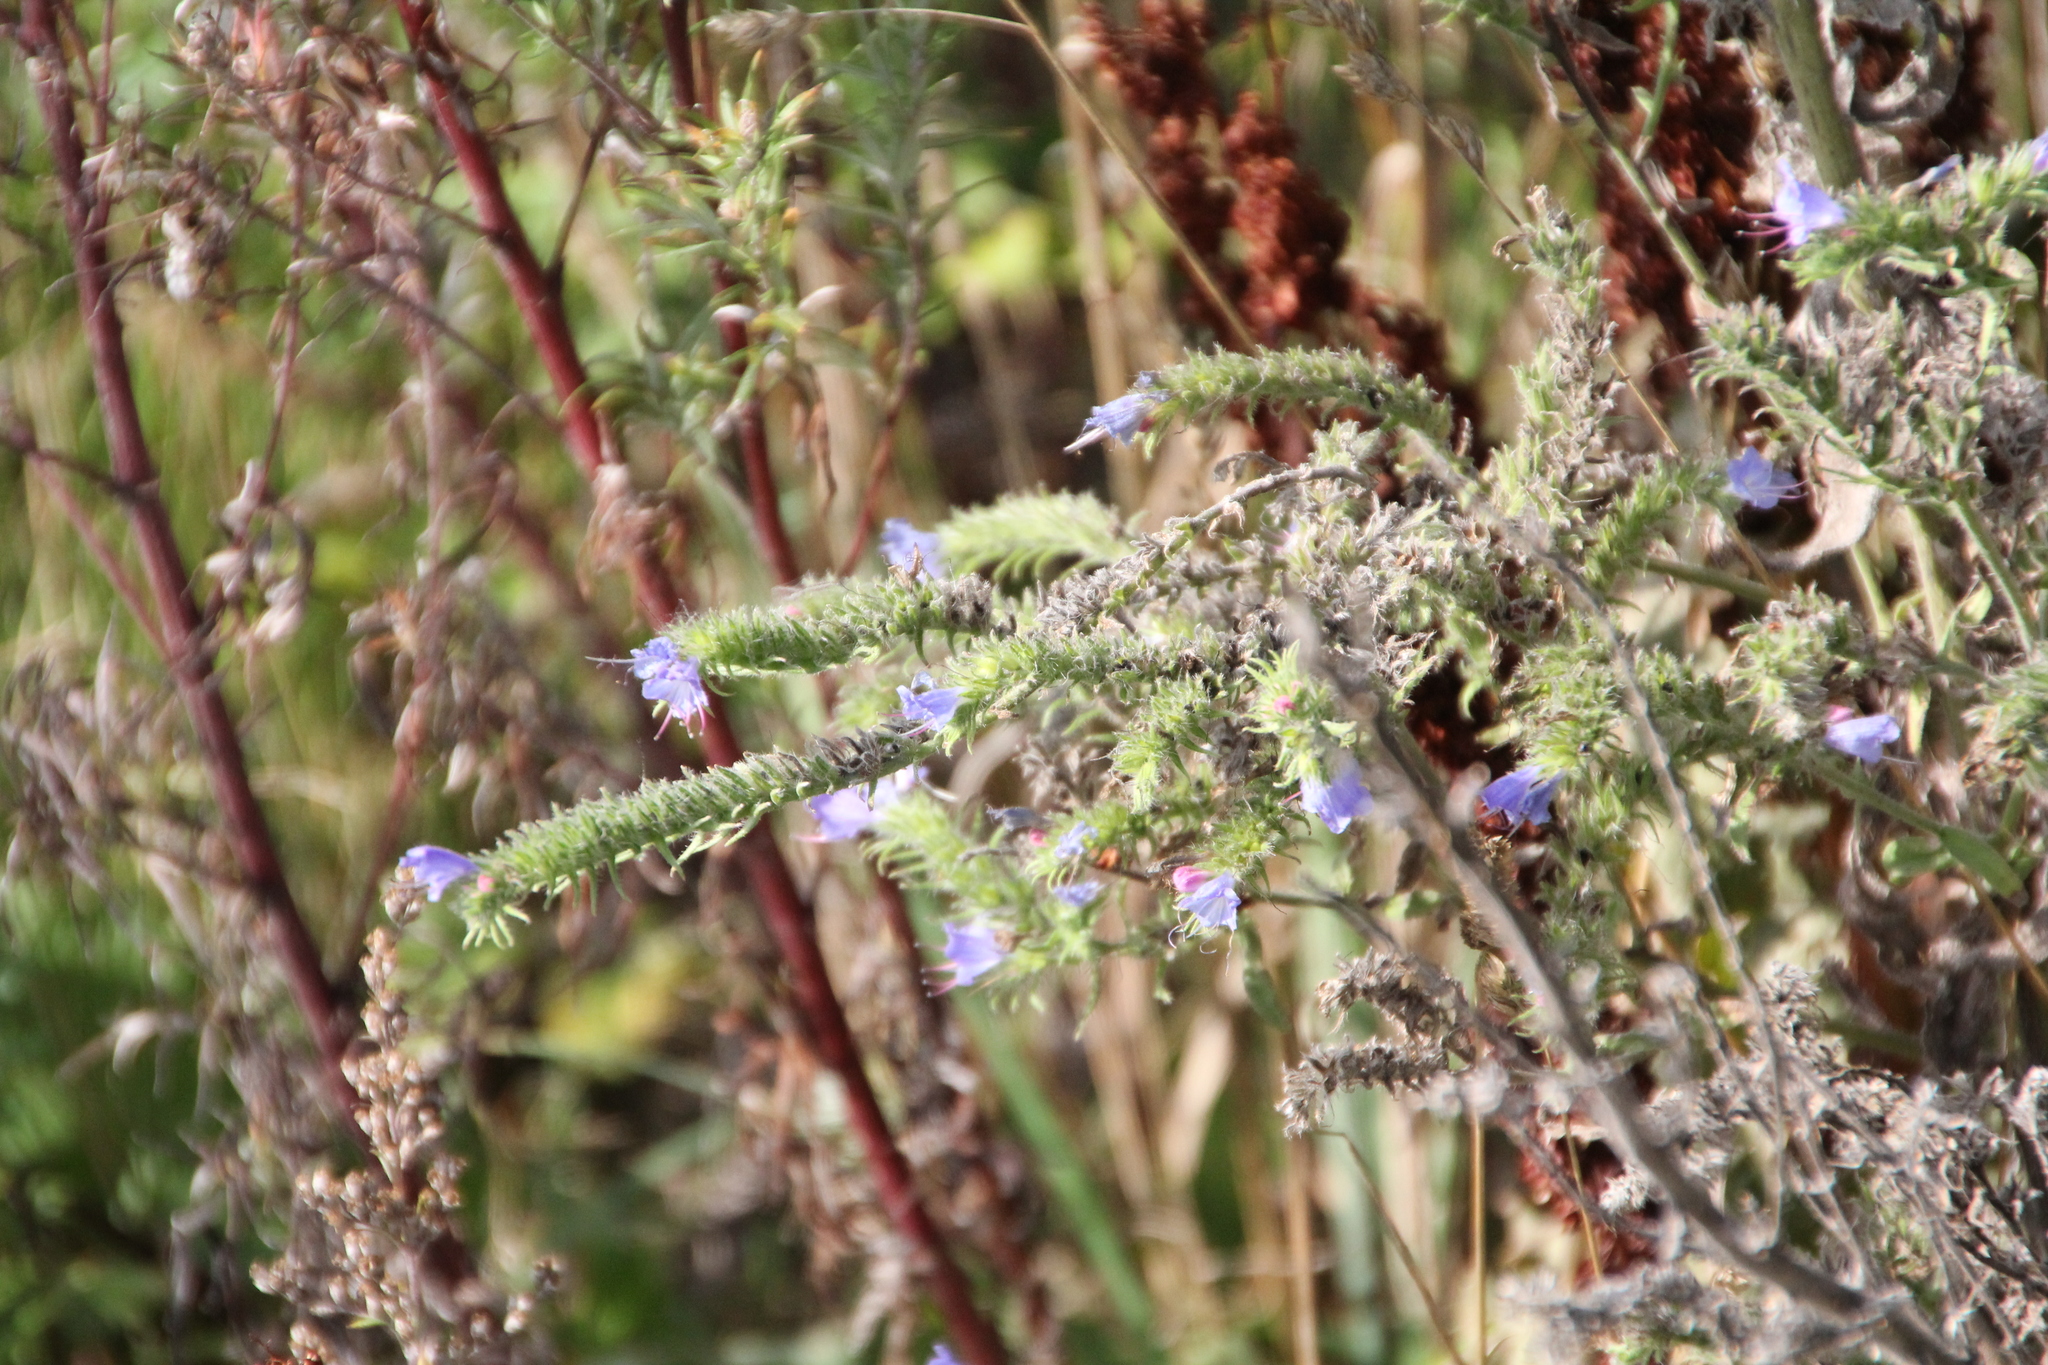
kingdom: Plantae
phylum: Tracheophyta
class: Magnoliopsida
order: Boraginales
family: Boraginaceae
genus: Echium
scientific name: Echium vulgare
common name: Common viper's bugloss
